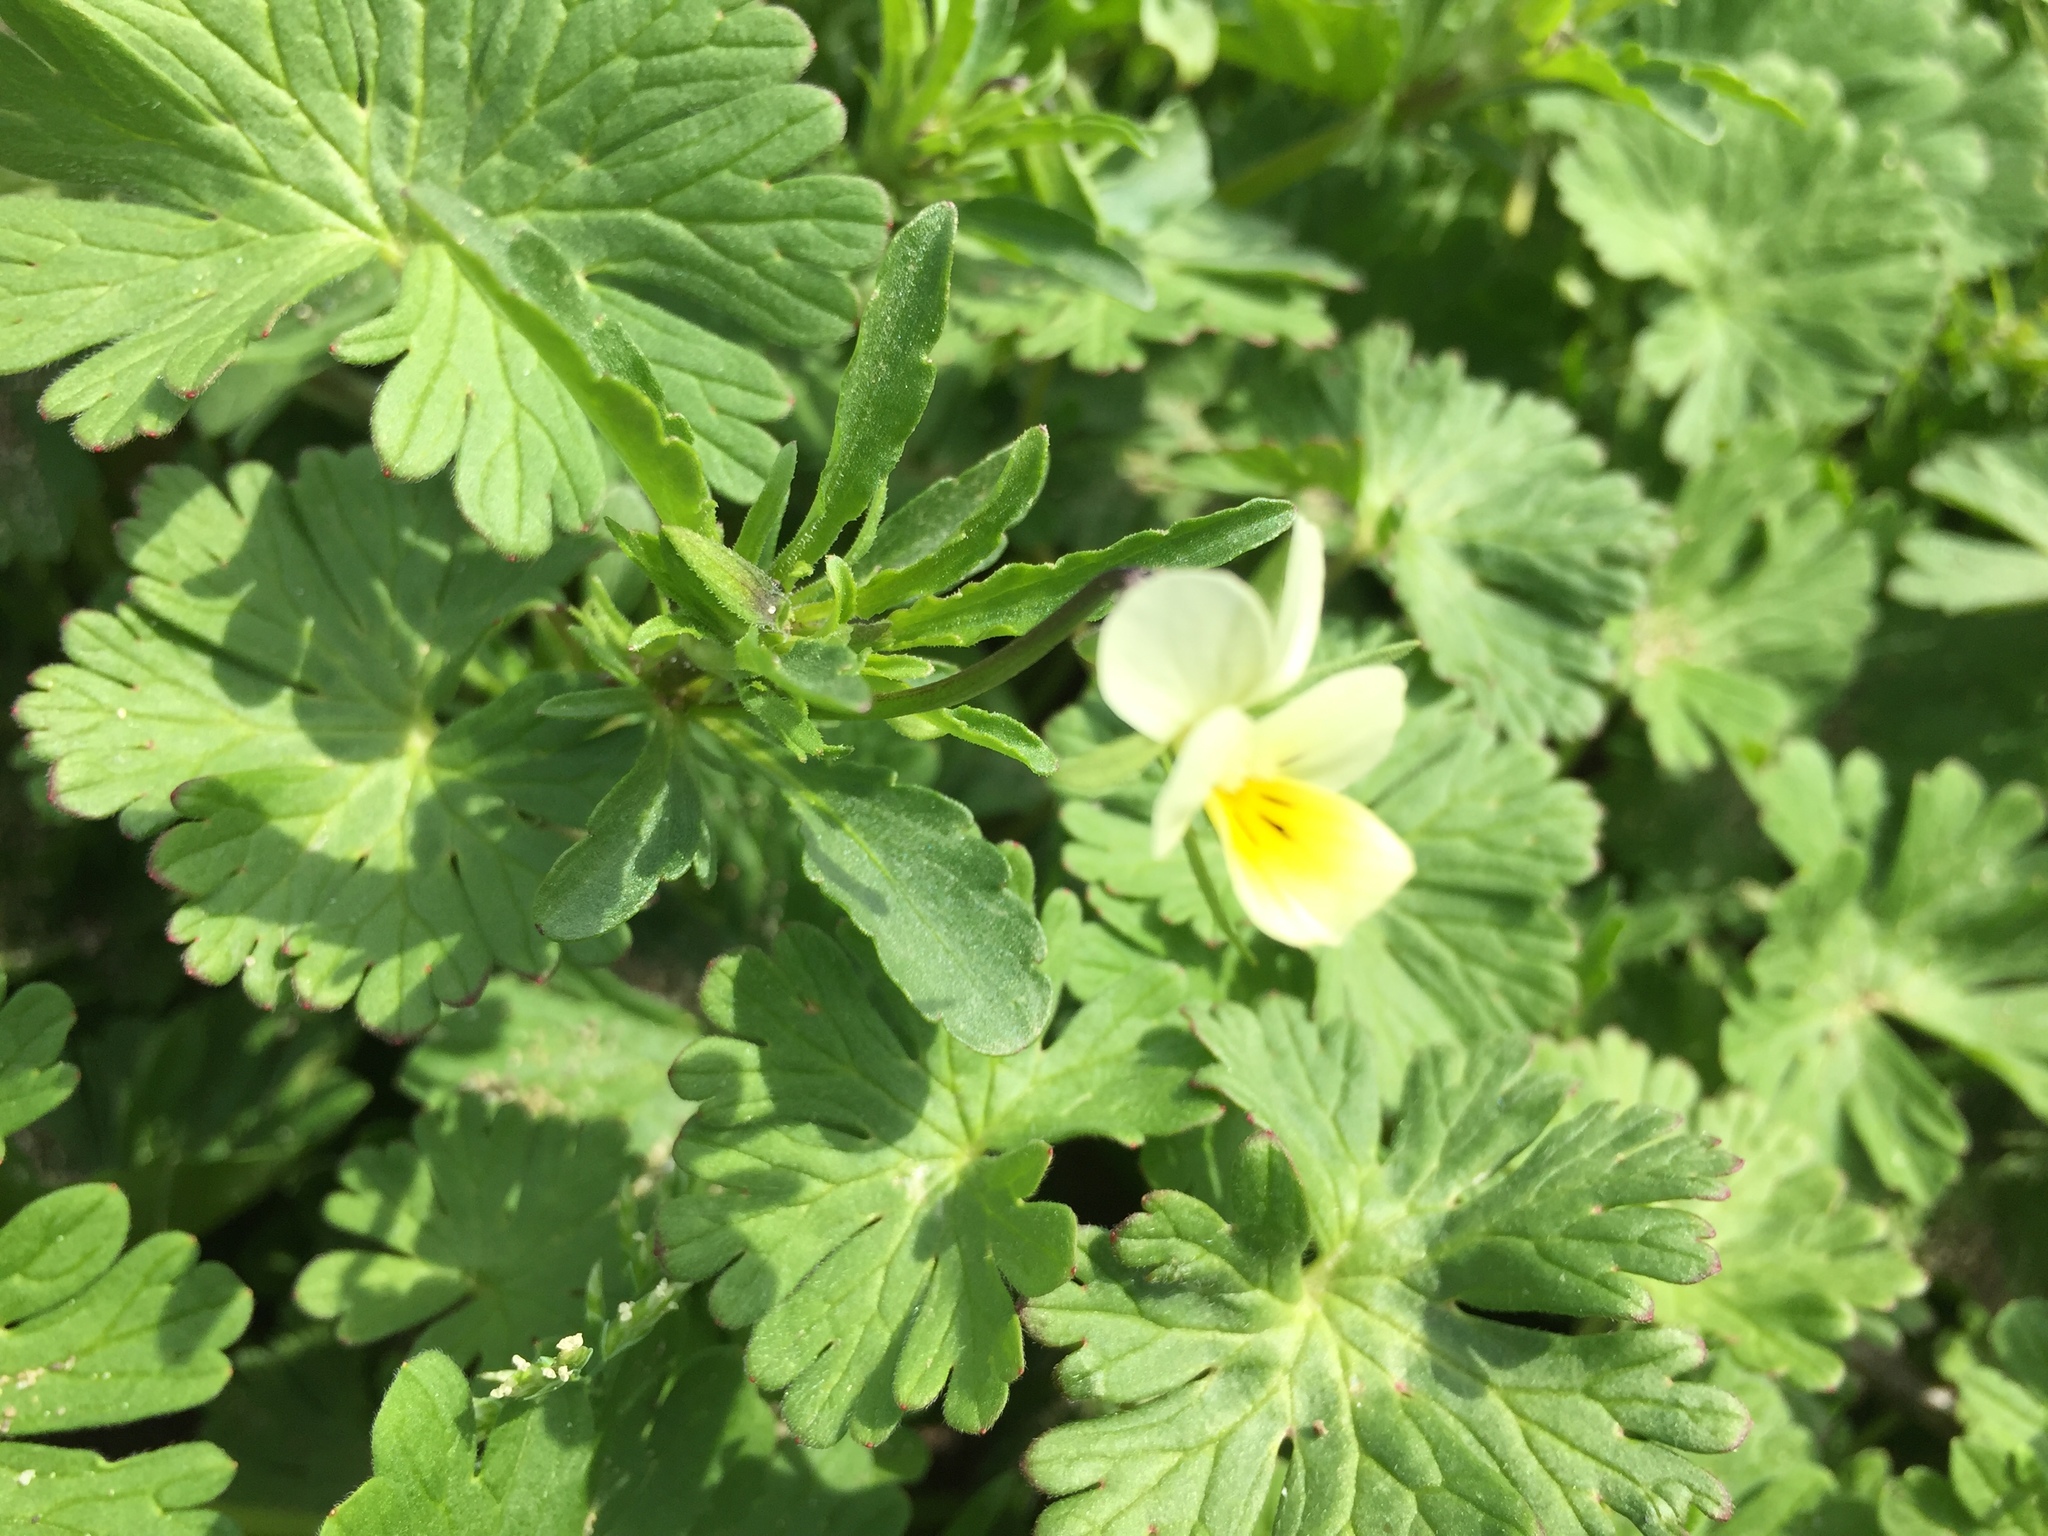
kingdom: Plantae
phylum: Tracheophyta
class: Magnoliopsida
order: Malpighiales
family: Violaceae
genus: Viola
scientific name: Viola arvensis
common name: Field pansy
